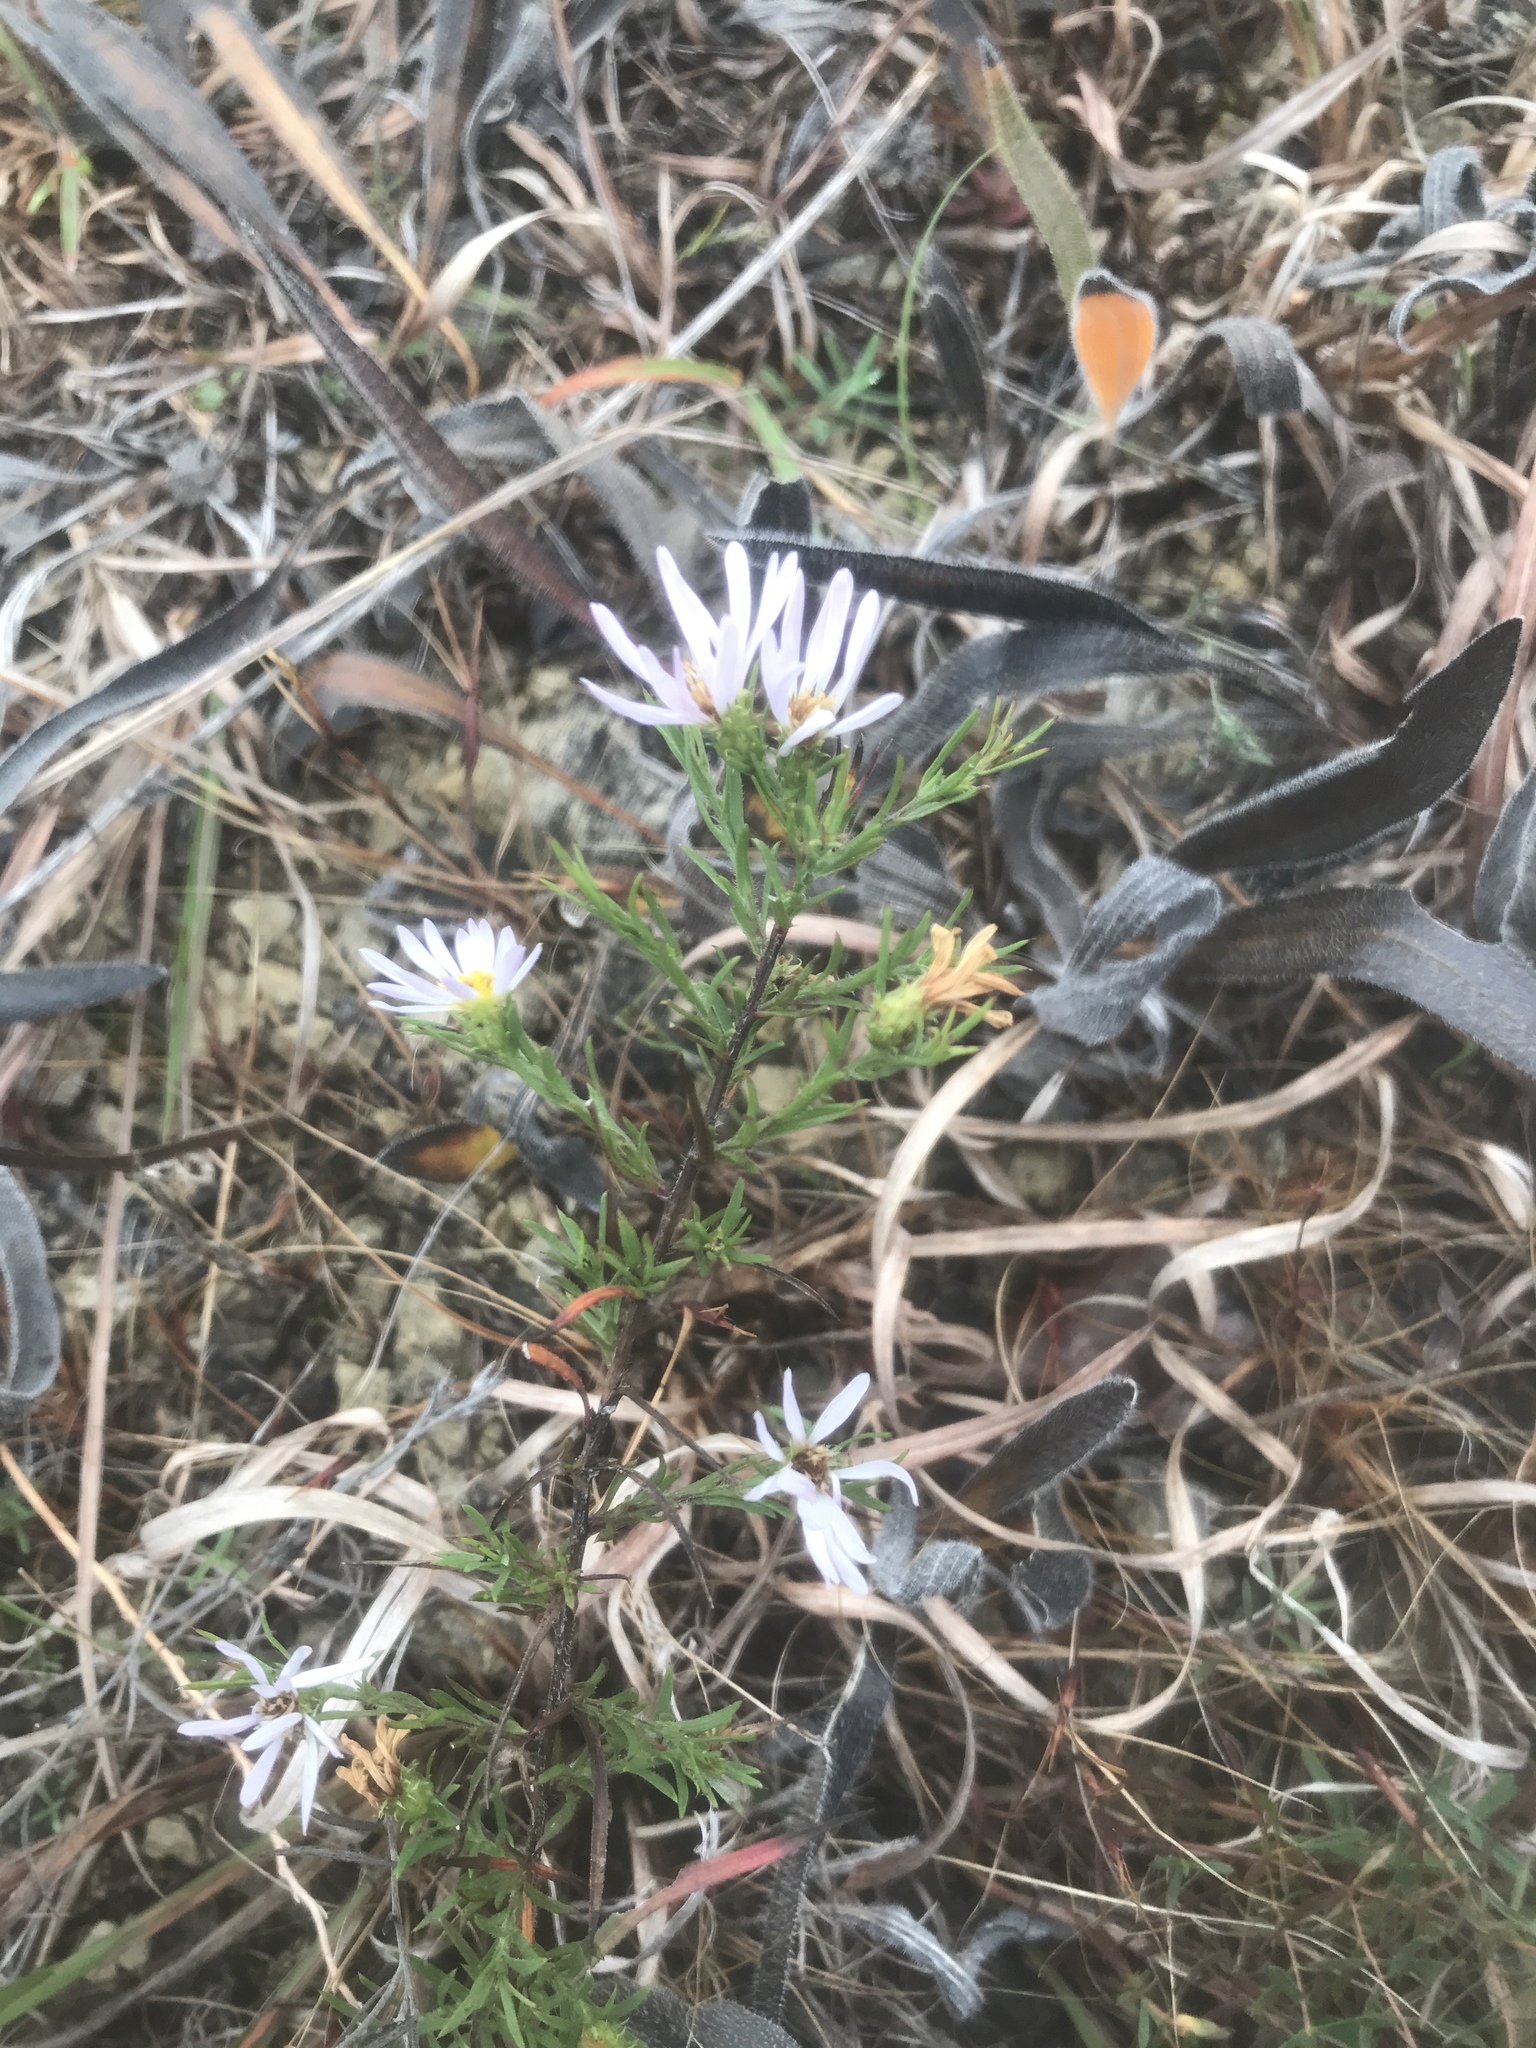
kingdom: Plantae
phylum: Tracheophyta
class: Magnoliopsida
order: Asterales
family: Asteraceae
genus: Symphyotrichum
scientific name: Symphyotrichum priceae
